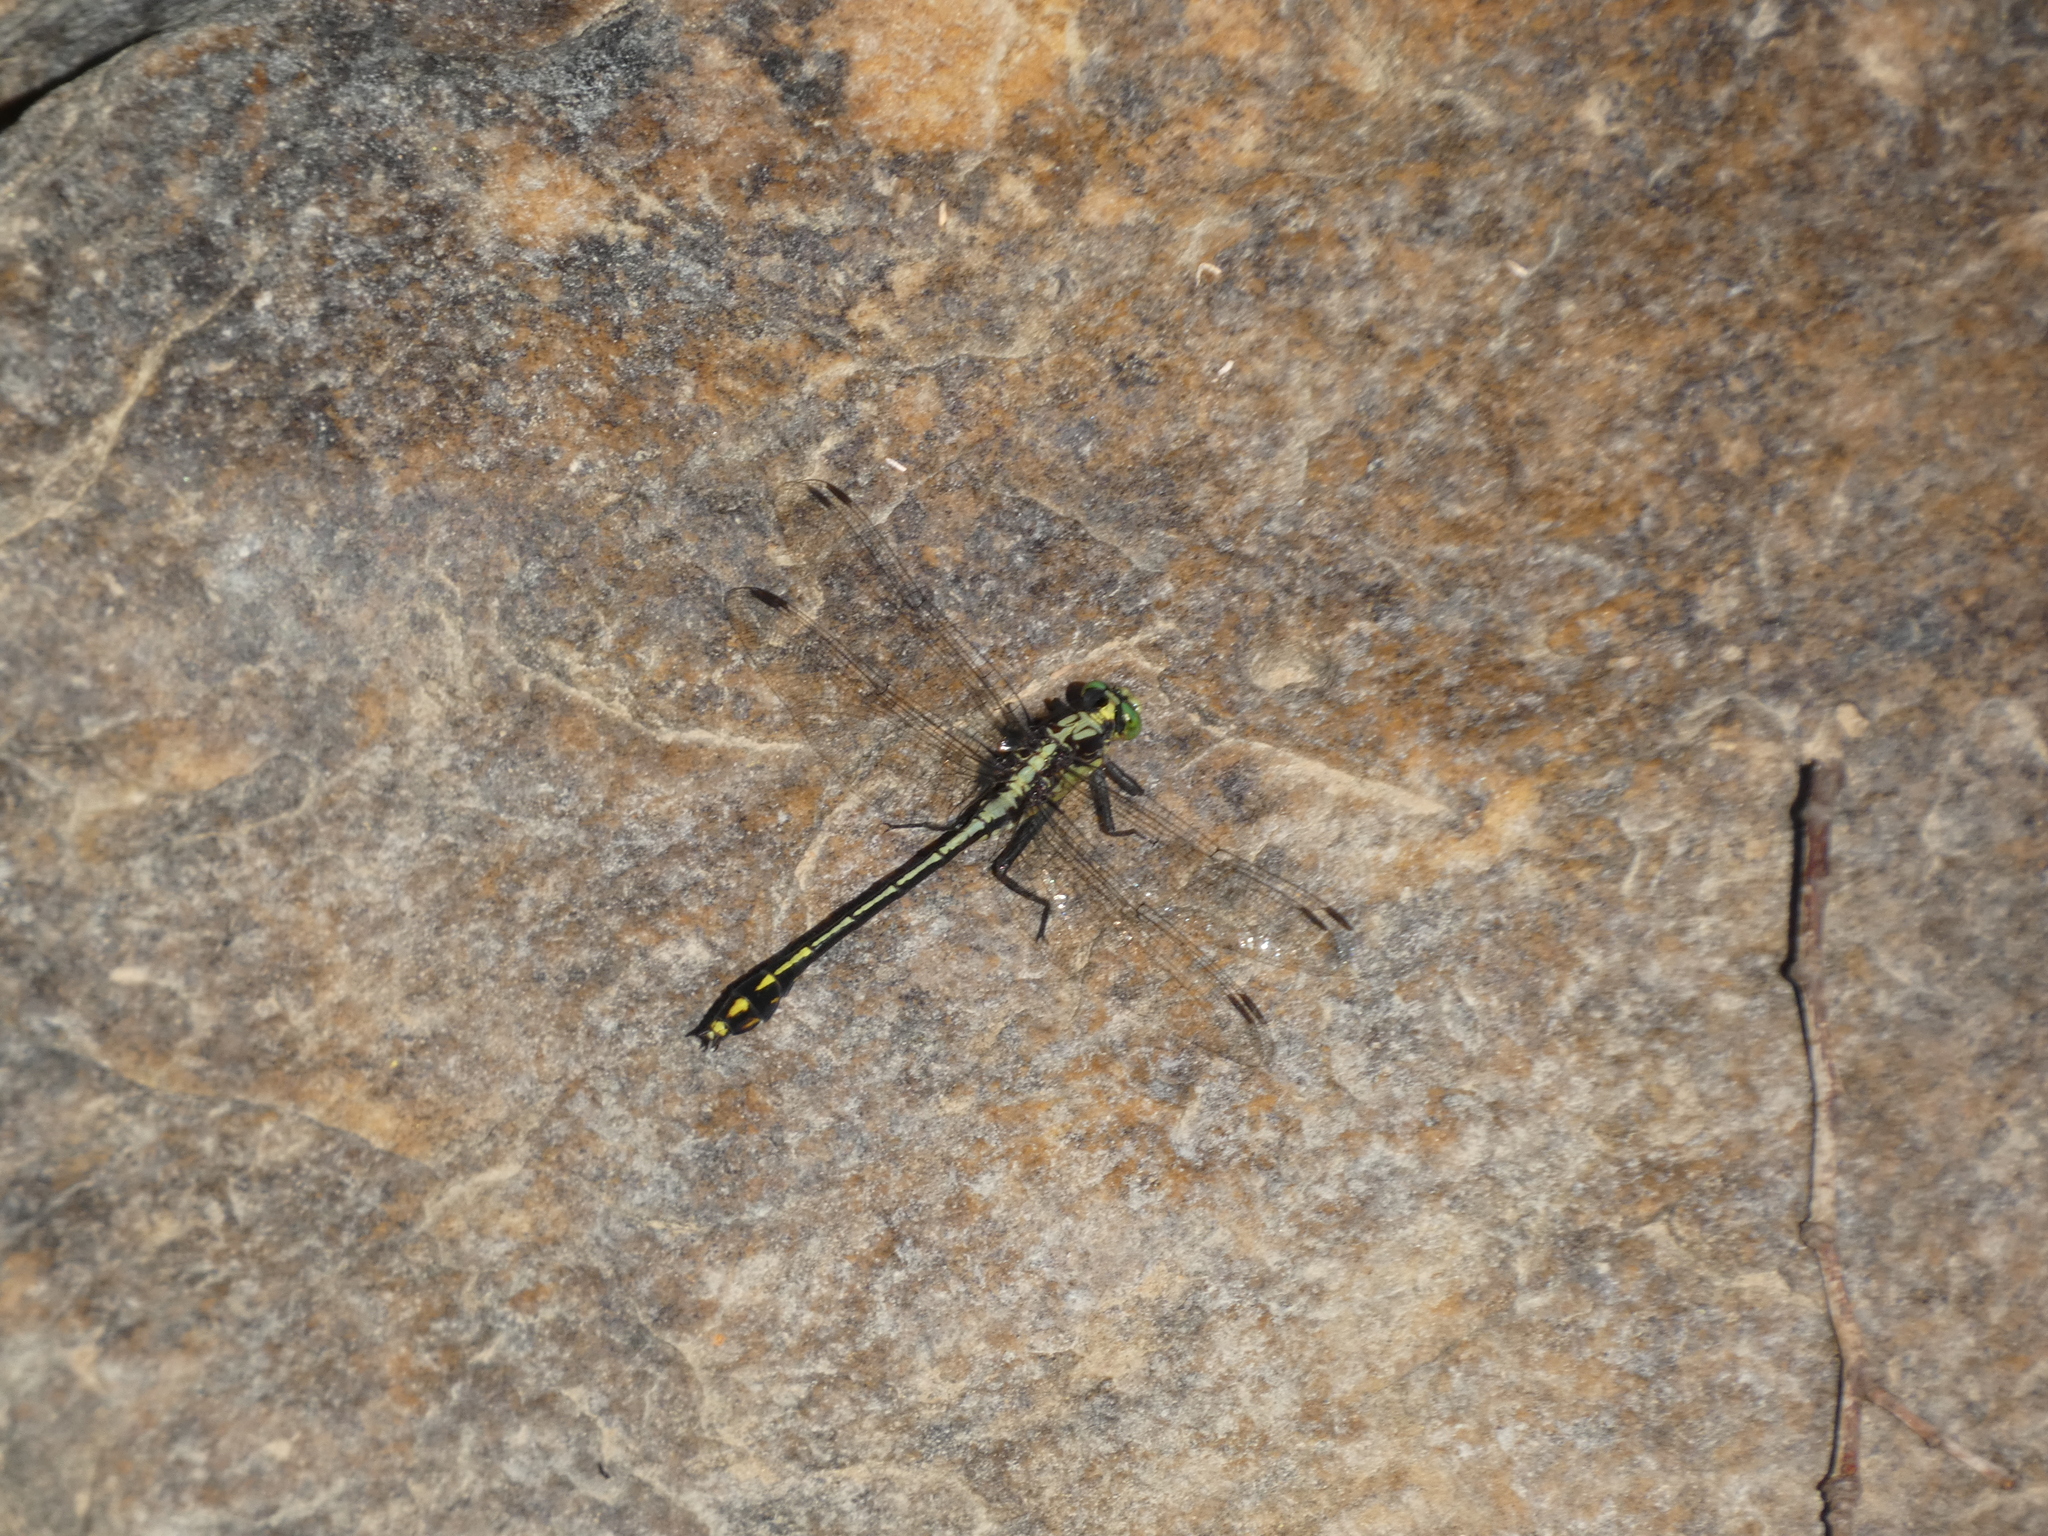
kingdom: Animalia
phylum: Arthropoda
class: Insecta
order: Odonata
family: Gomphidae
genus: Dromogomphus
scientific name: Dromogomphus spinosus
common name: Black-shouldered spinyleg
